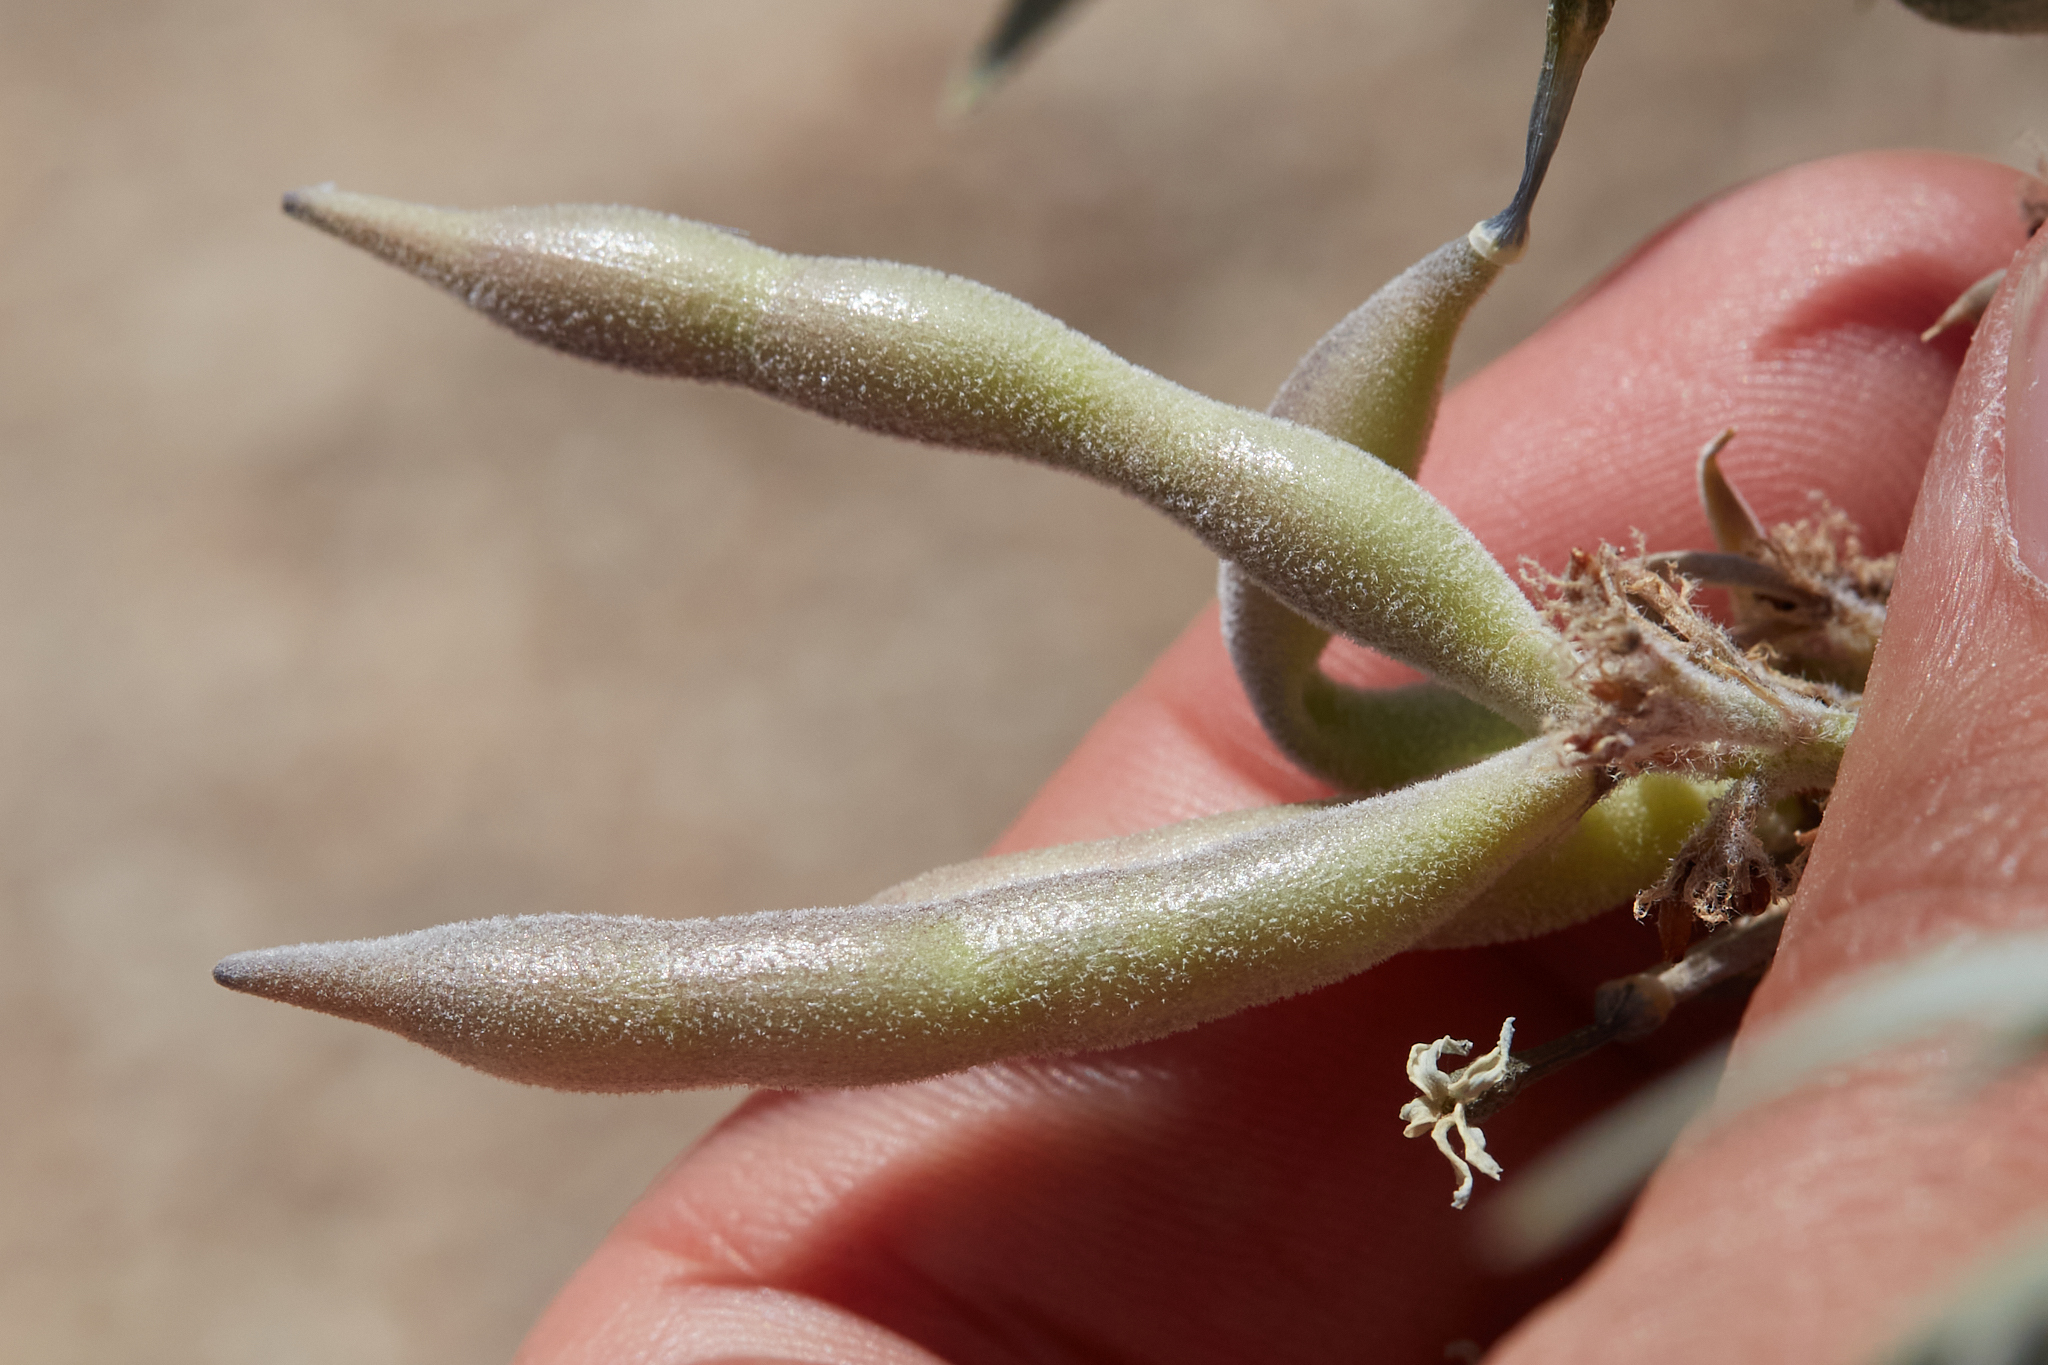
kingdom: Plantae
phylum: Tracheophyta
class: Magnoliopsida
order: Gentianales
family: Apocynaceae
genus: Amsonia
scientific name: Amsonia tomentosa
